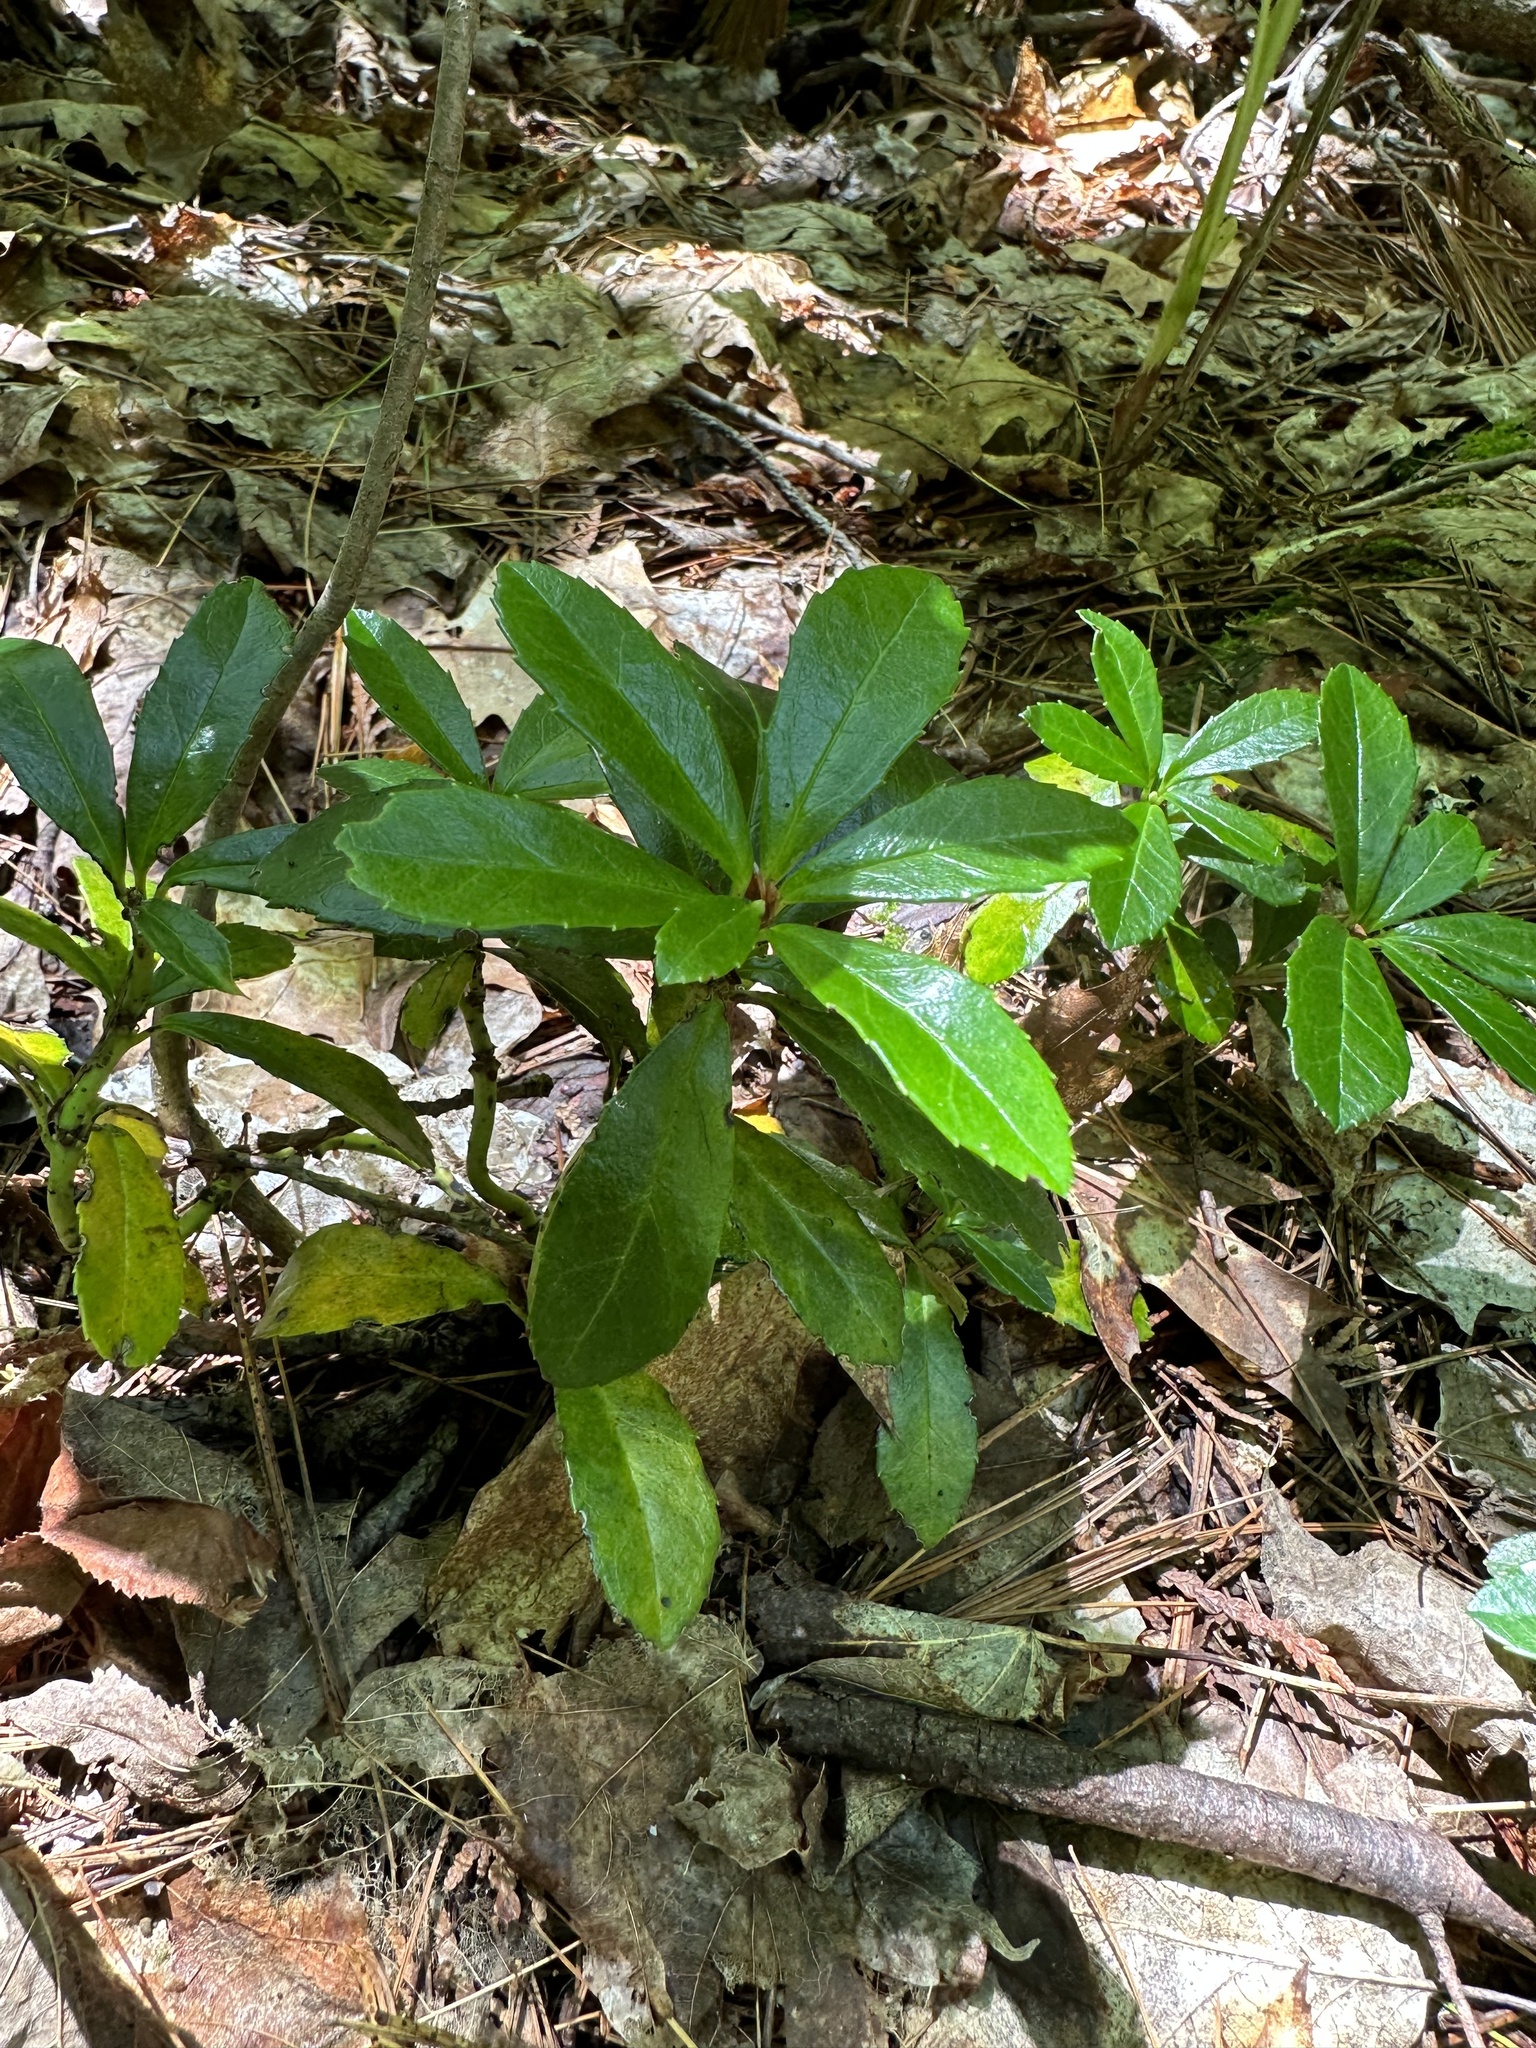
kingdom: Plantae
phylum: Tracheophyta
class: Magnoliopsida
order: Ericales
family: Ericaceae
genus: Chimaphila
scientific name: Chimaphila umbellata
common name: Pipsissewa
